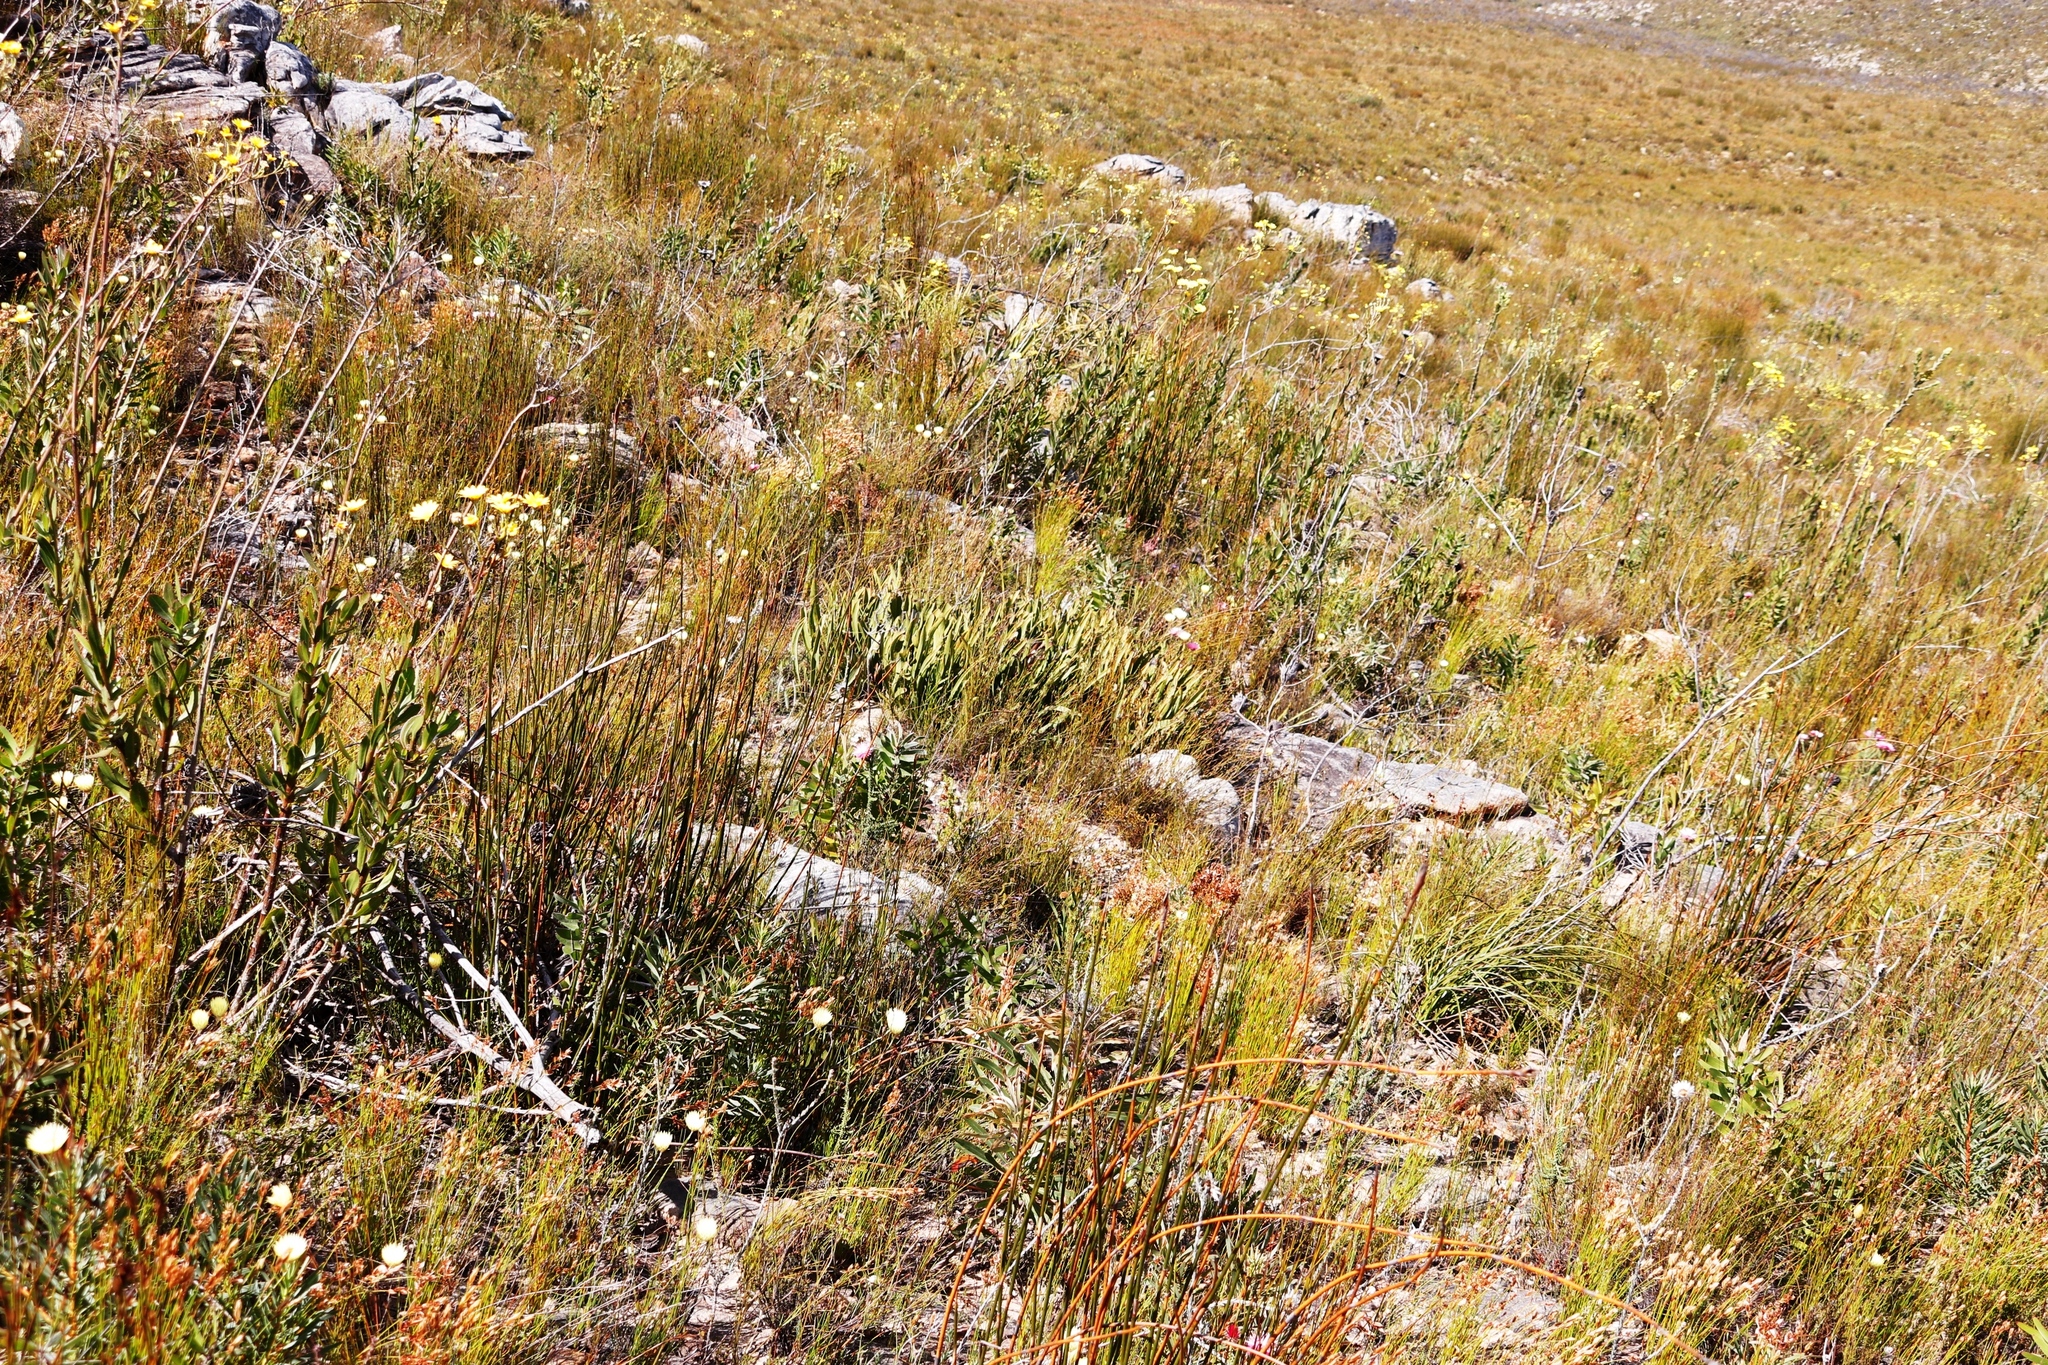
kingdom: Plantae
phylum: Tracheophyta
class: Magnoliopsida
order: Proteales
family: Proteaceae
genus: Protea
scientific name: Protea scabra
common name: Sandpaper-leaf sugarbush
